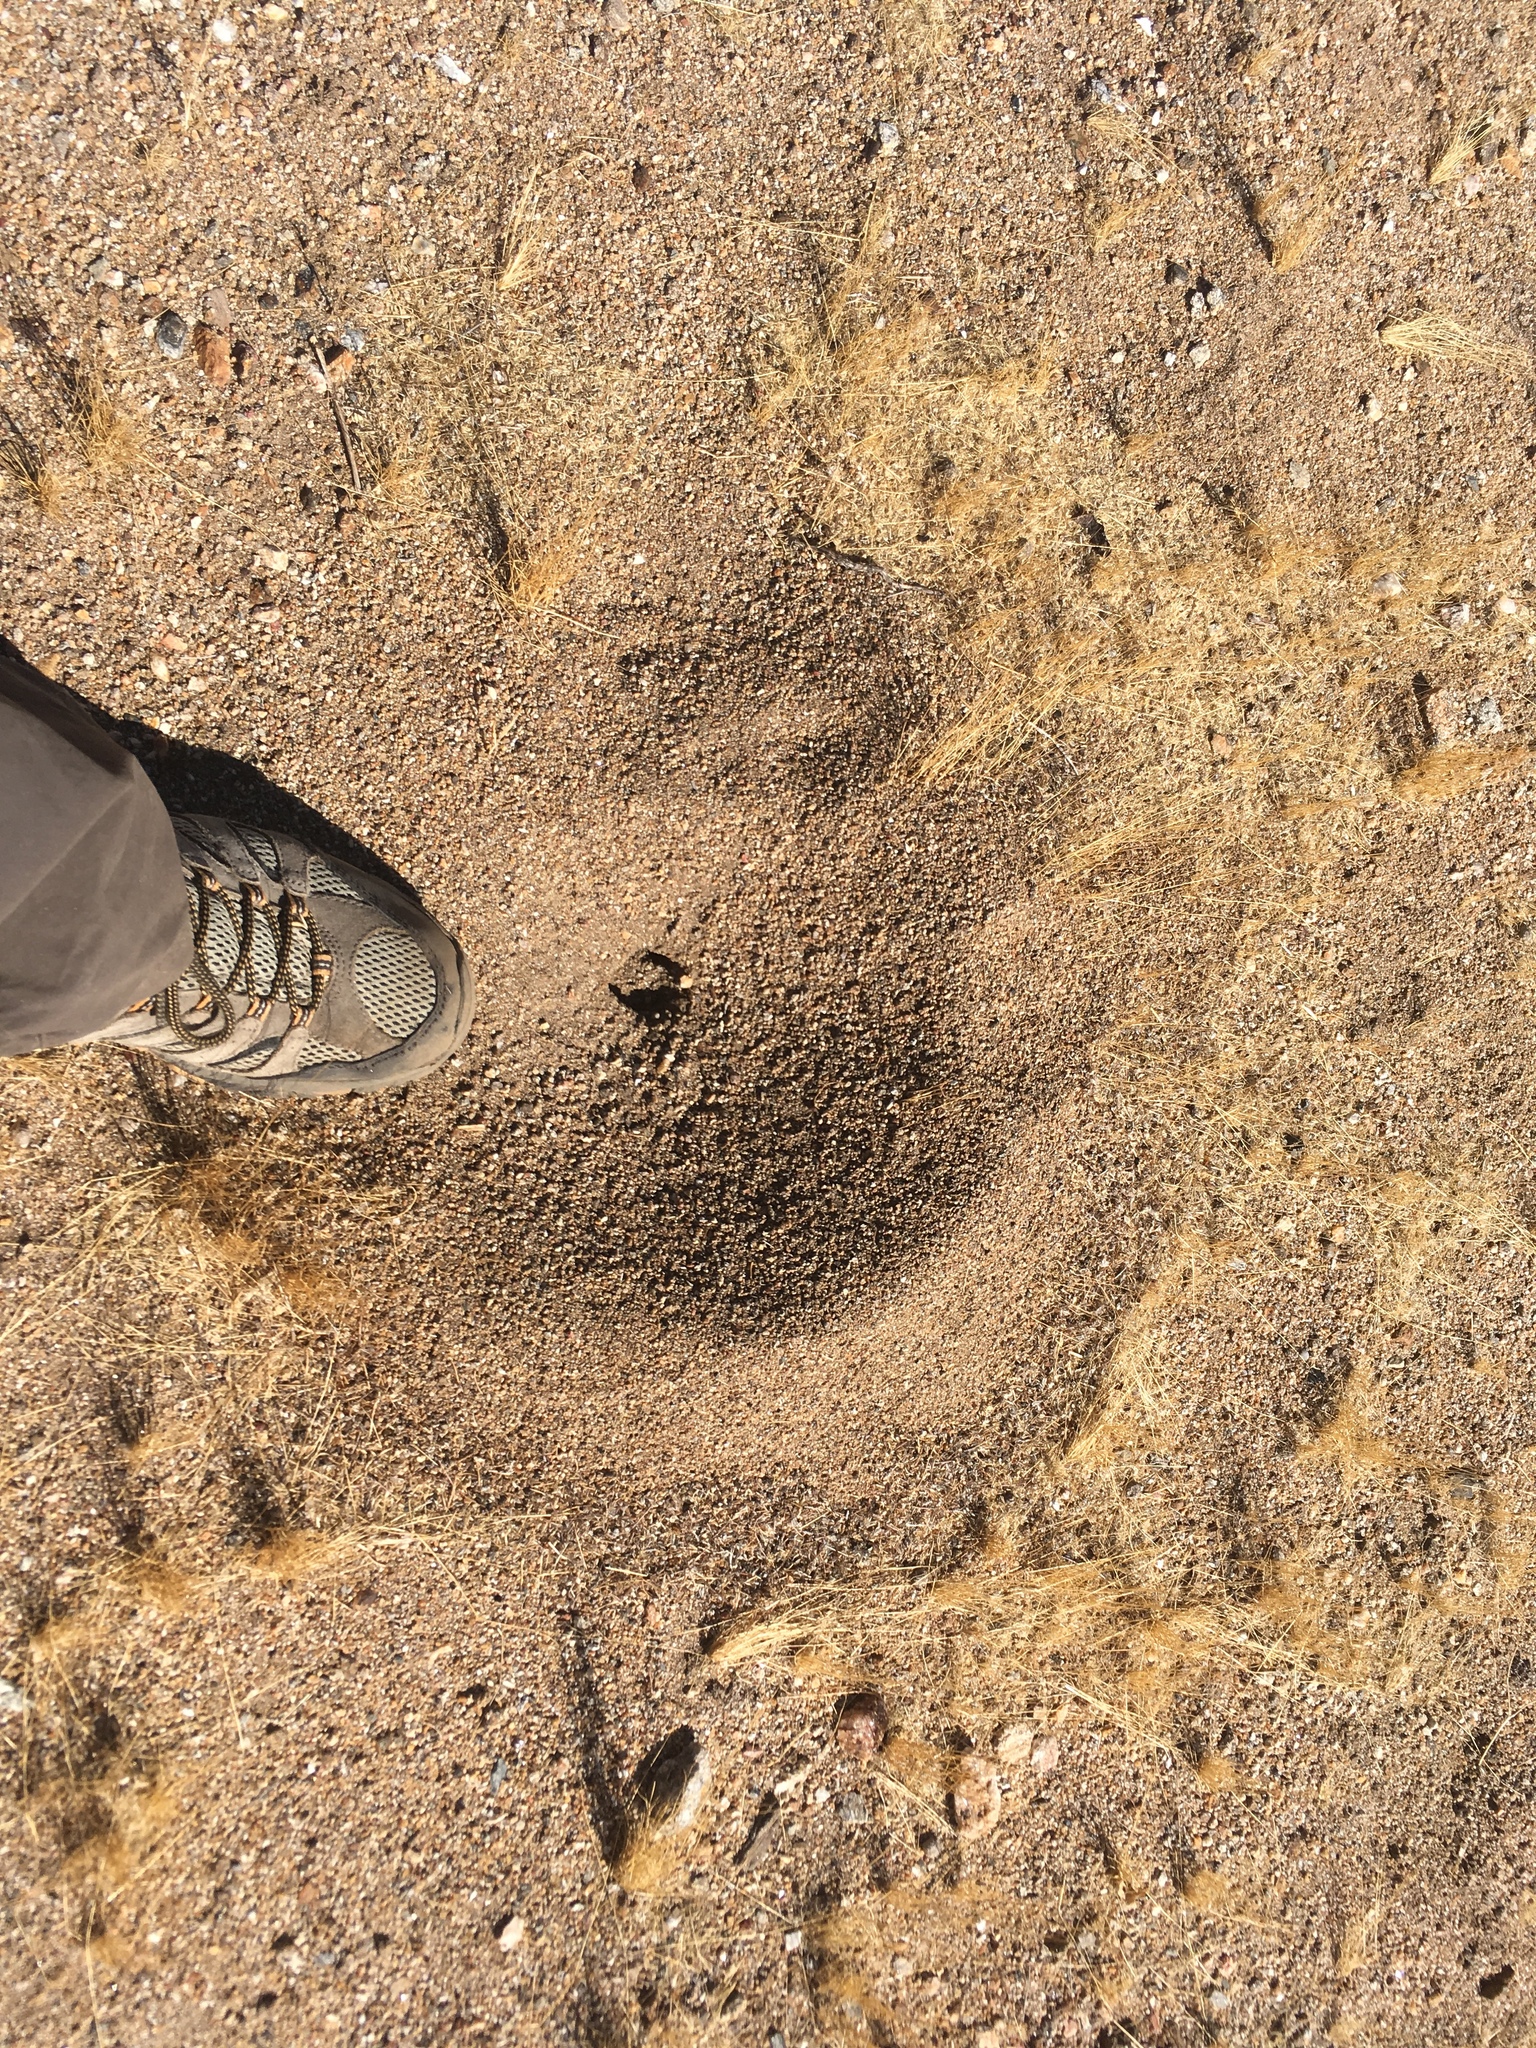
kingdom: Animalia
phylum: Arthropoda
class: Insecta
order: Hymenoptera
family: Formicidae
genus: Messor
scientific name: Messor pergandei
